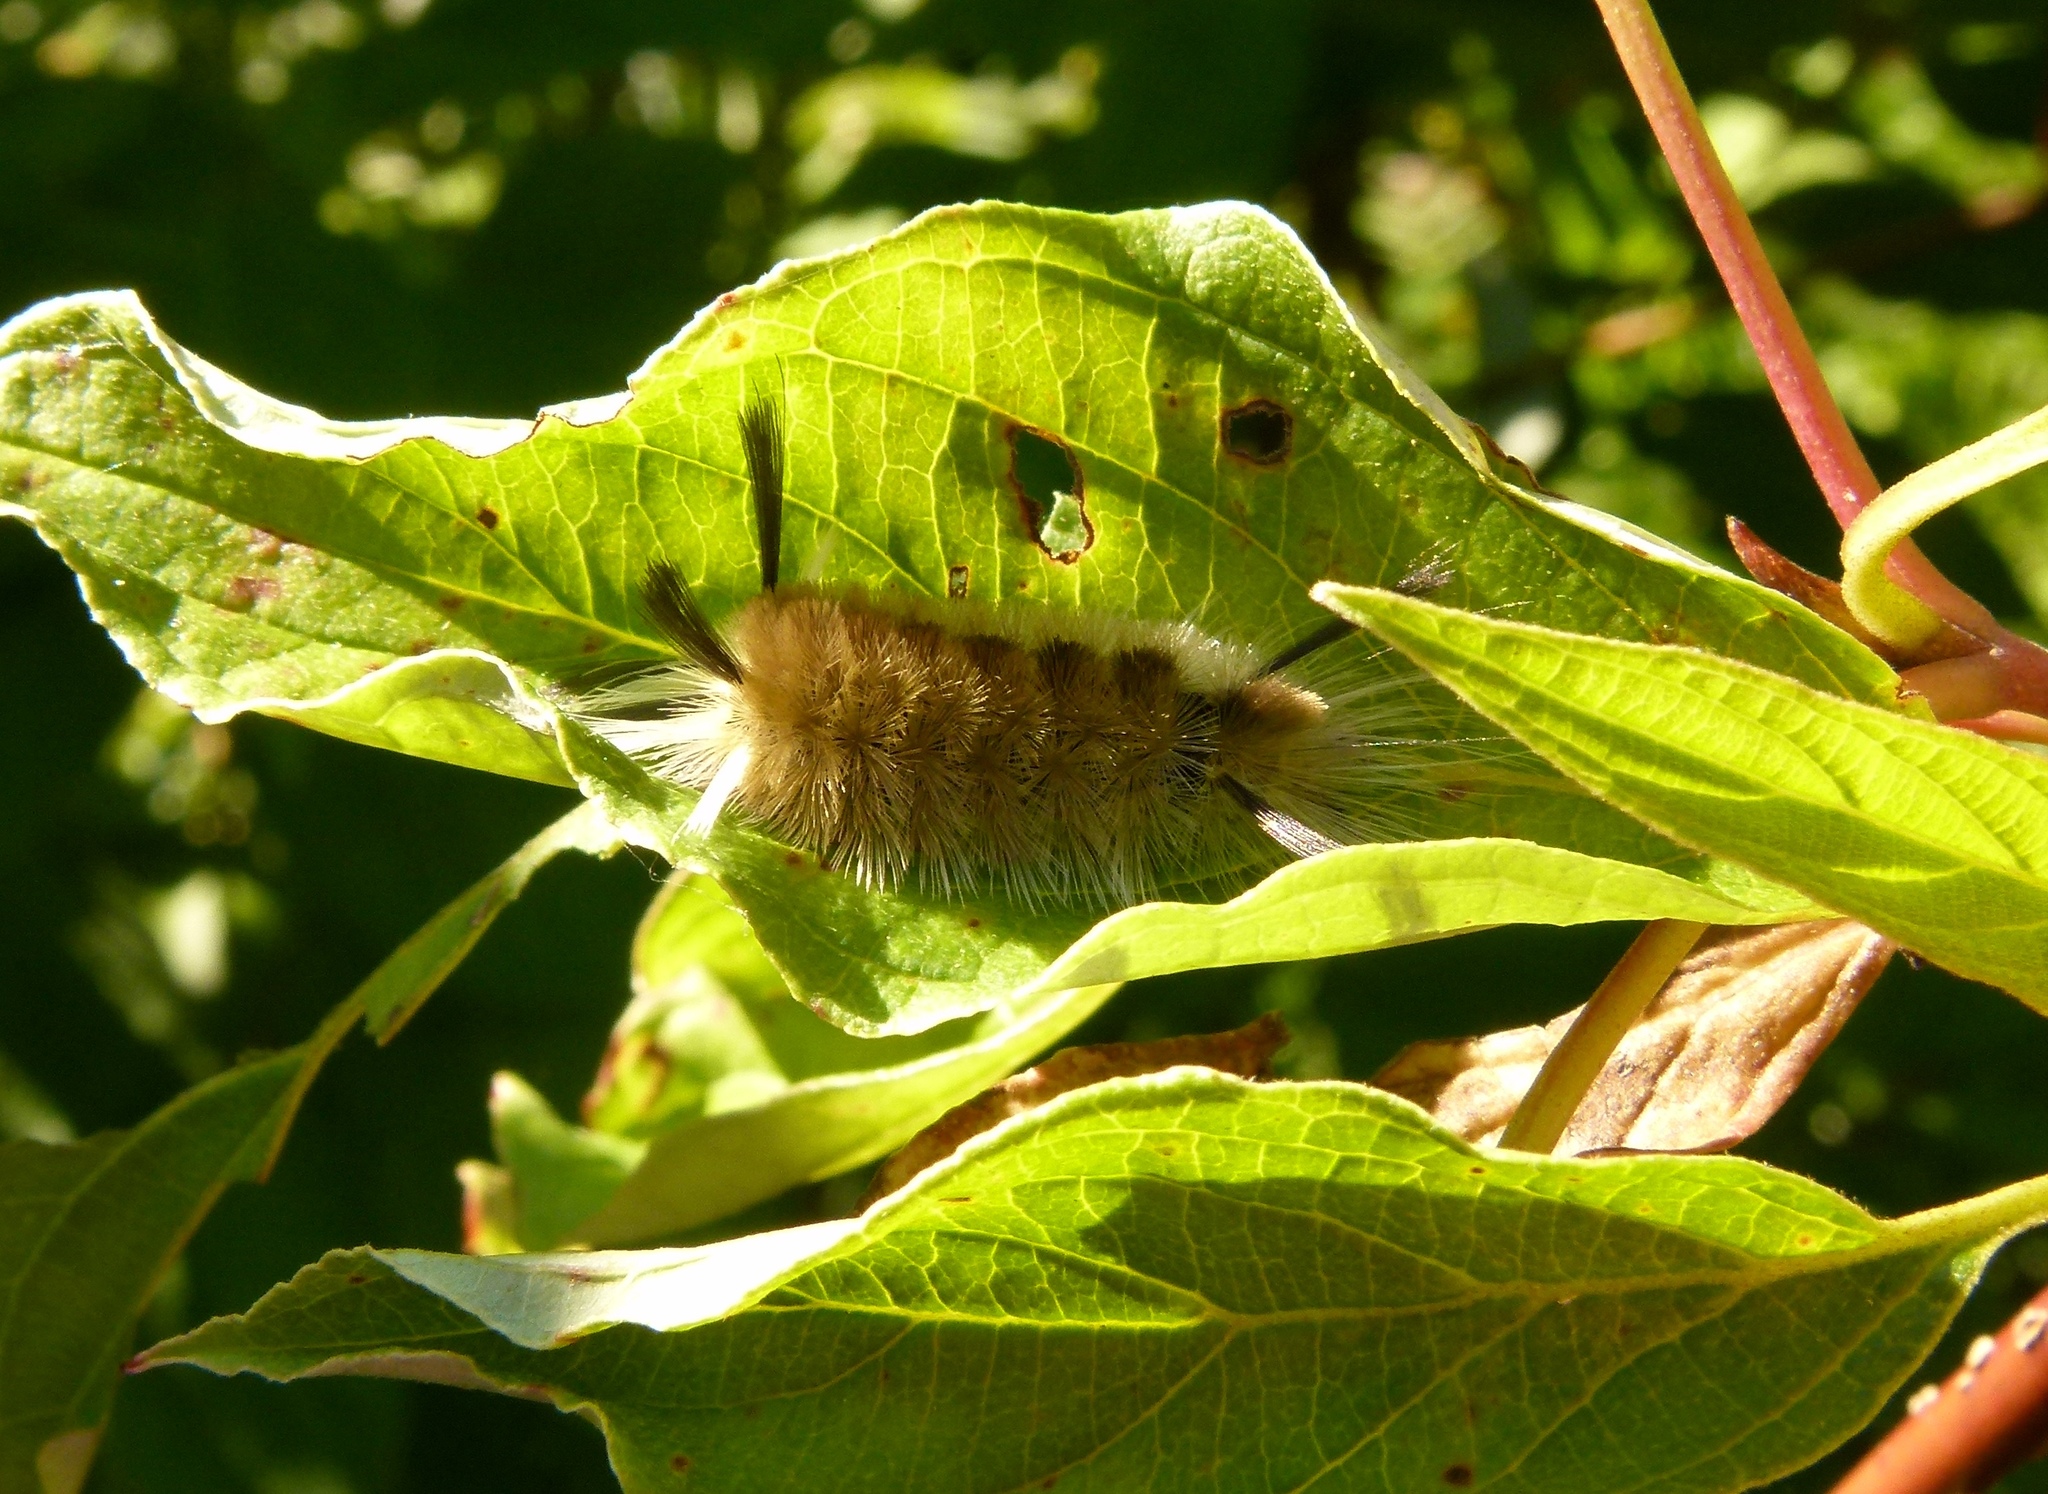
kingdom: Animalia
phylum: Arthropoda
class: Insecta
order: Lepidoptera
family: Erebidae
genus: Halysidota
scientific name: Halysidota tessellaris
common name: Banded tussock moth
